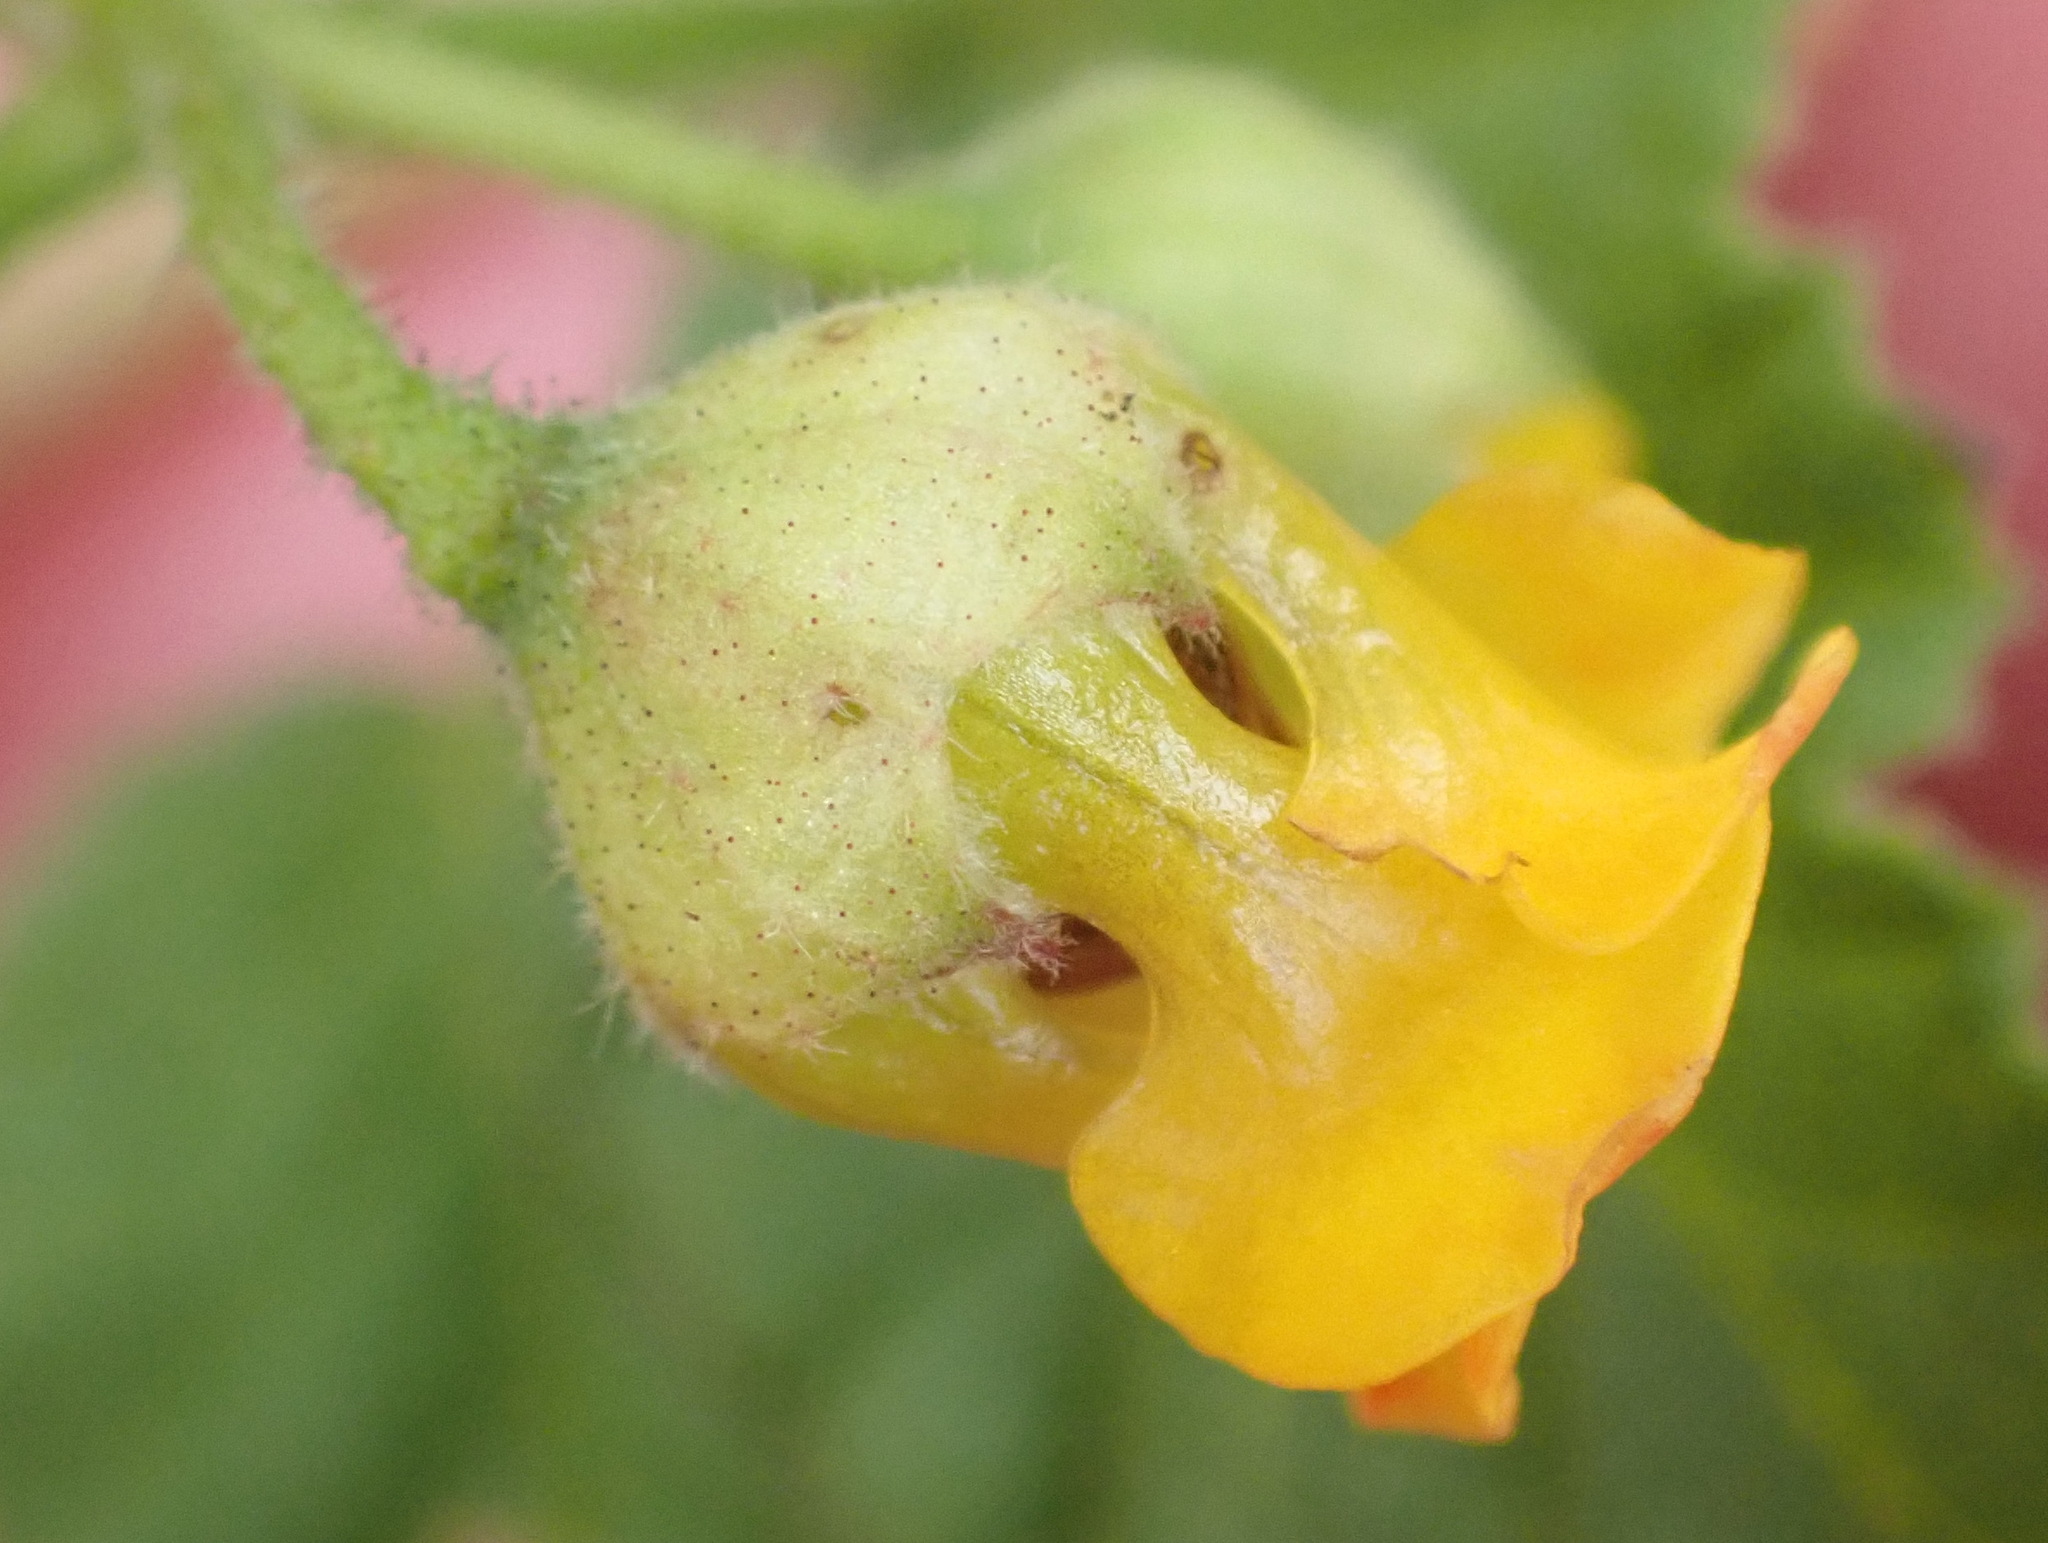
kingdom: Plantae
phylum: Tracheophyta
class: Magnoliopsida
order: Malvales
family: Malvaceae
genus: Hermannia
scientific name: Hermannia althaeoides
